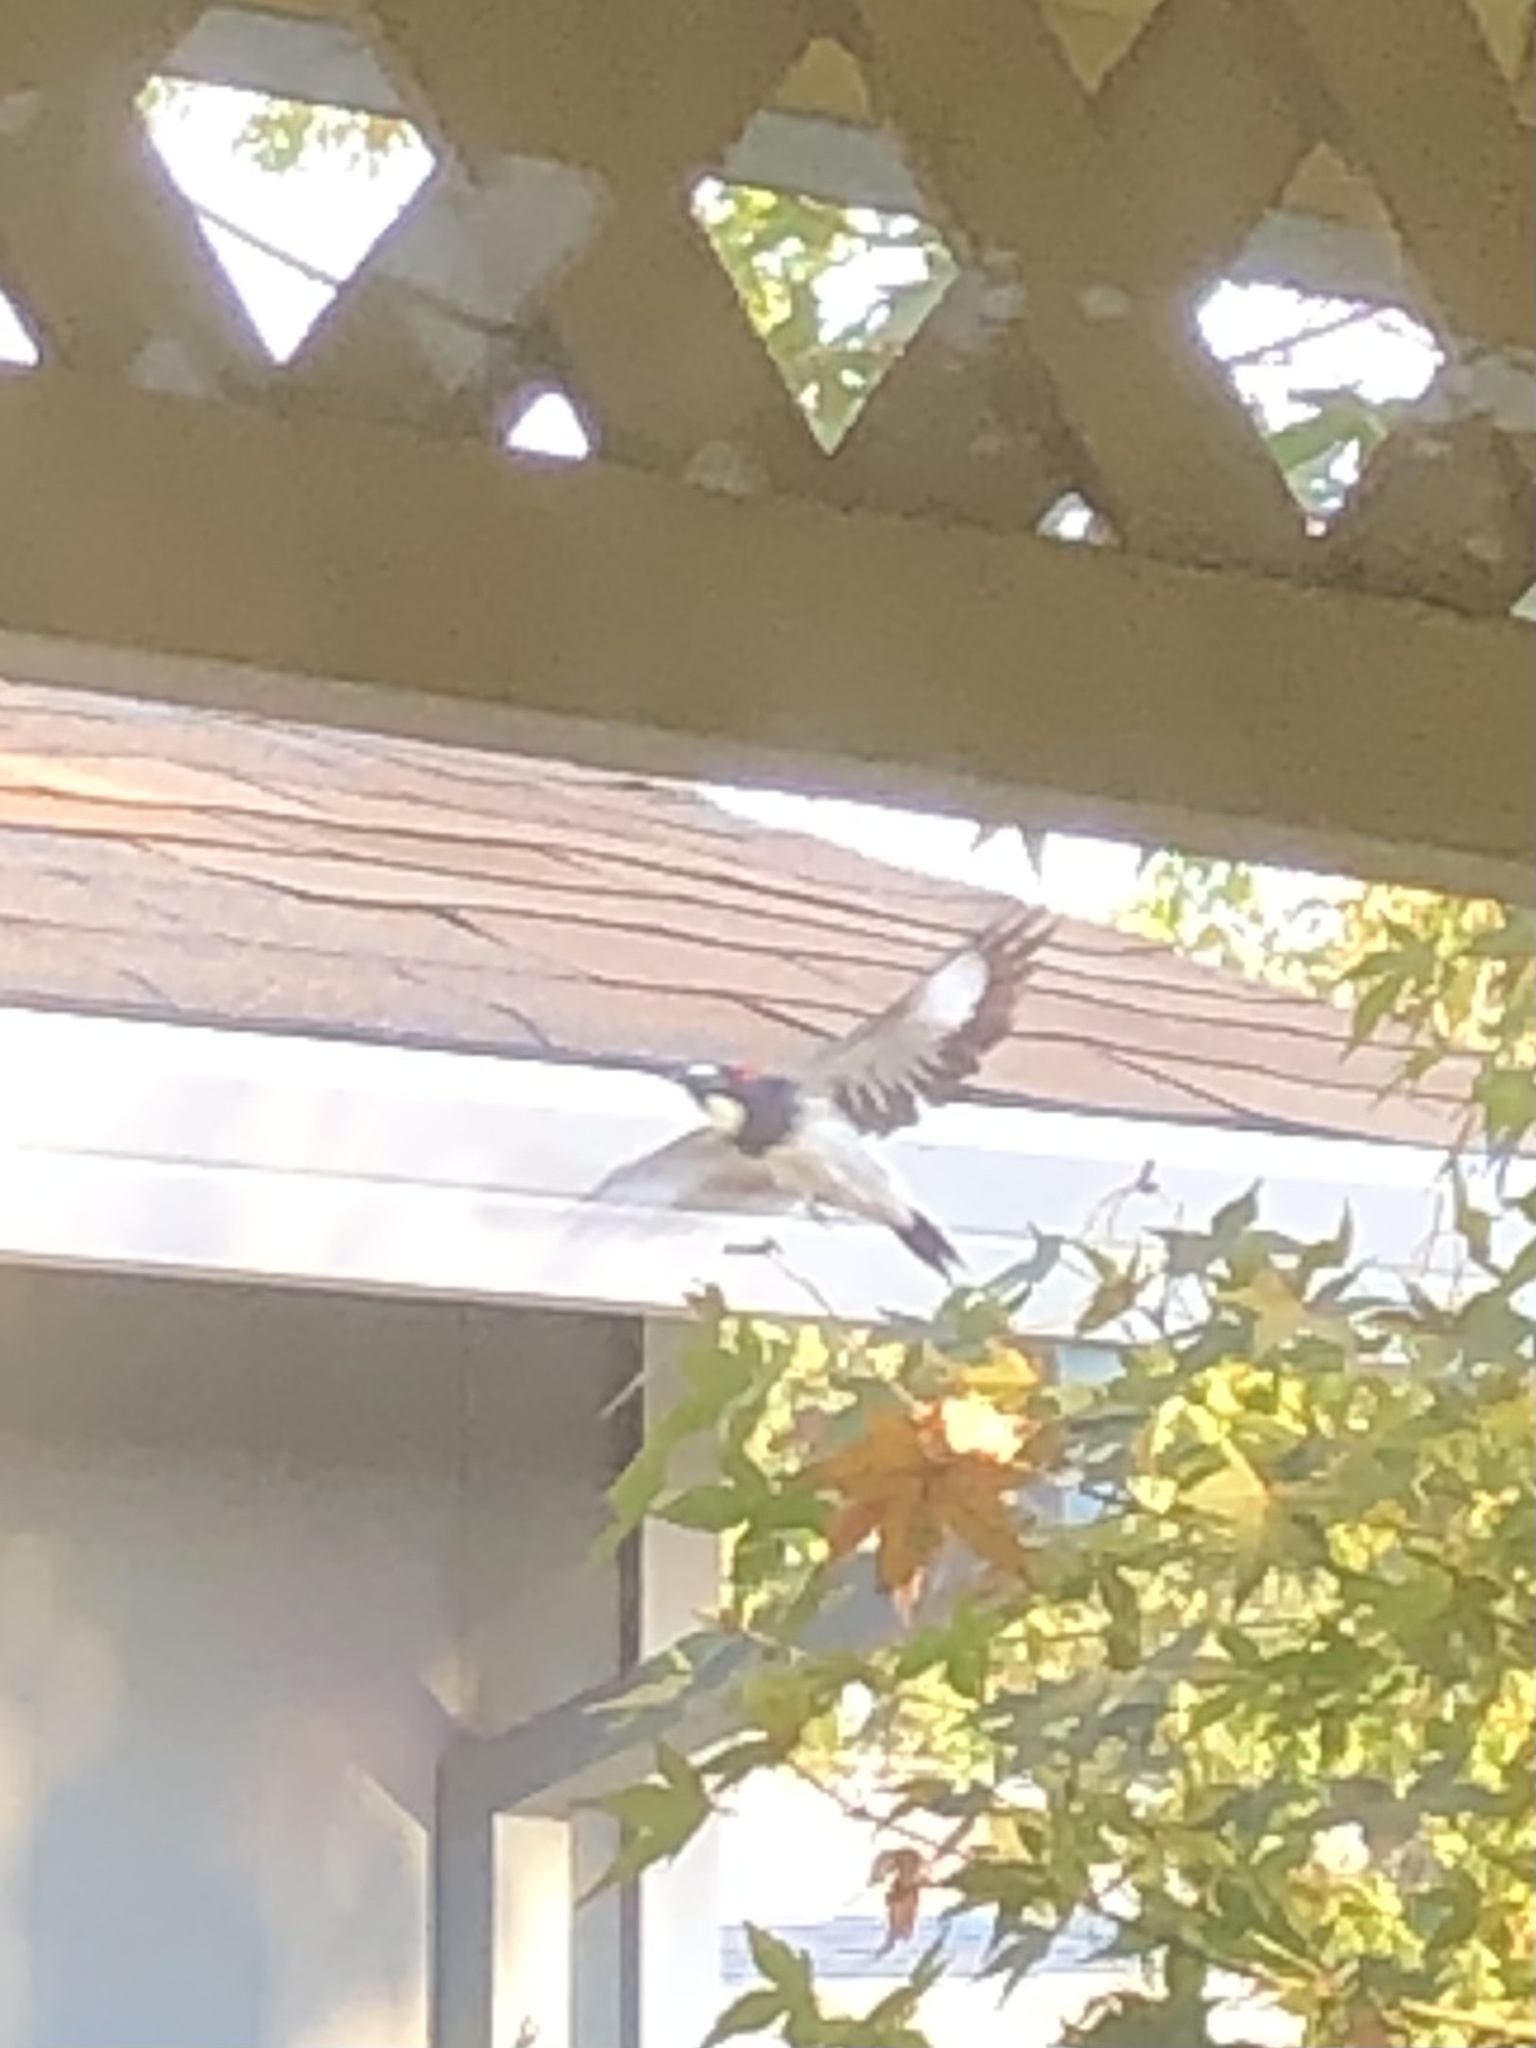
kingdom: Animalia
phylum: Chordata
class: Aves
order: Piciformes
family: Picidae
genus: Melanerpes
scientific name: Melanerpes formicivorus
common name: Acorn woodpecker
